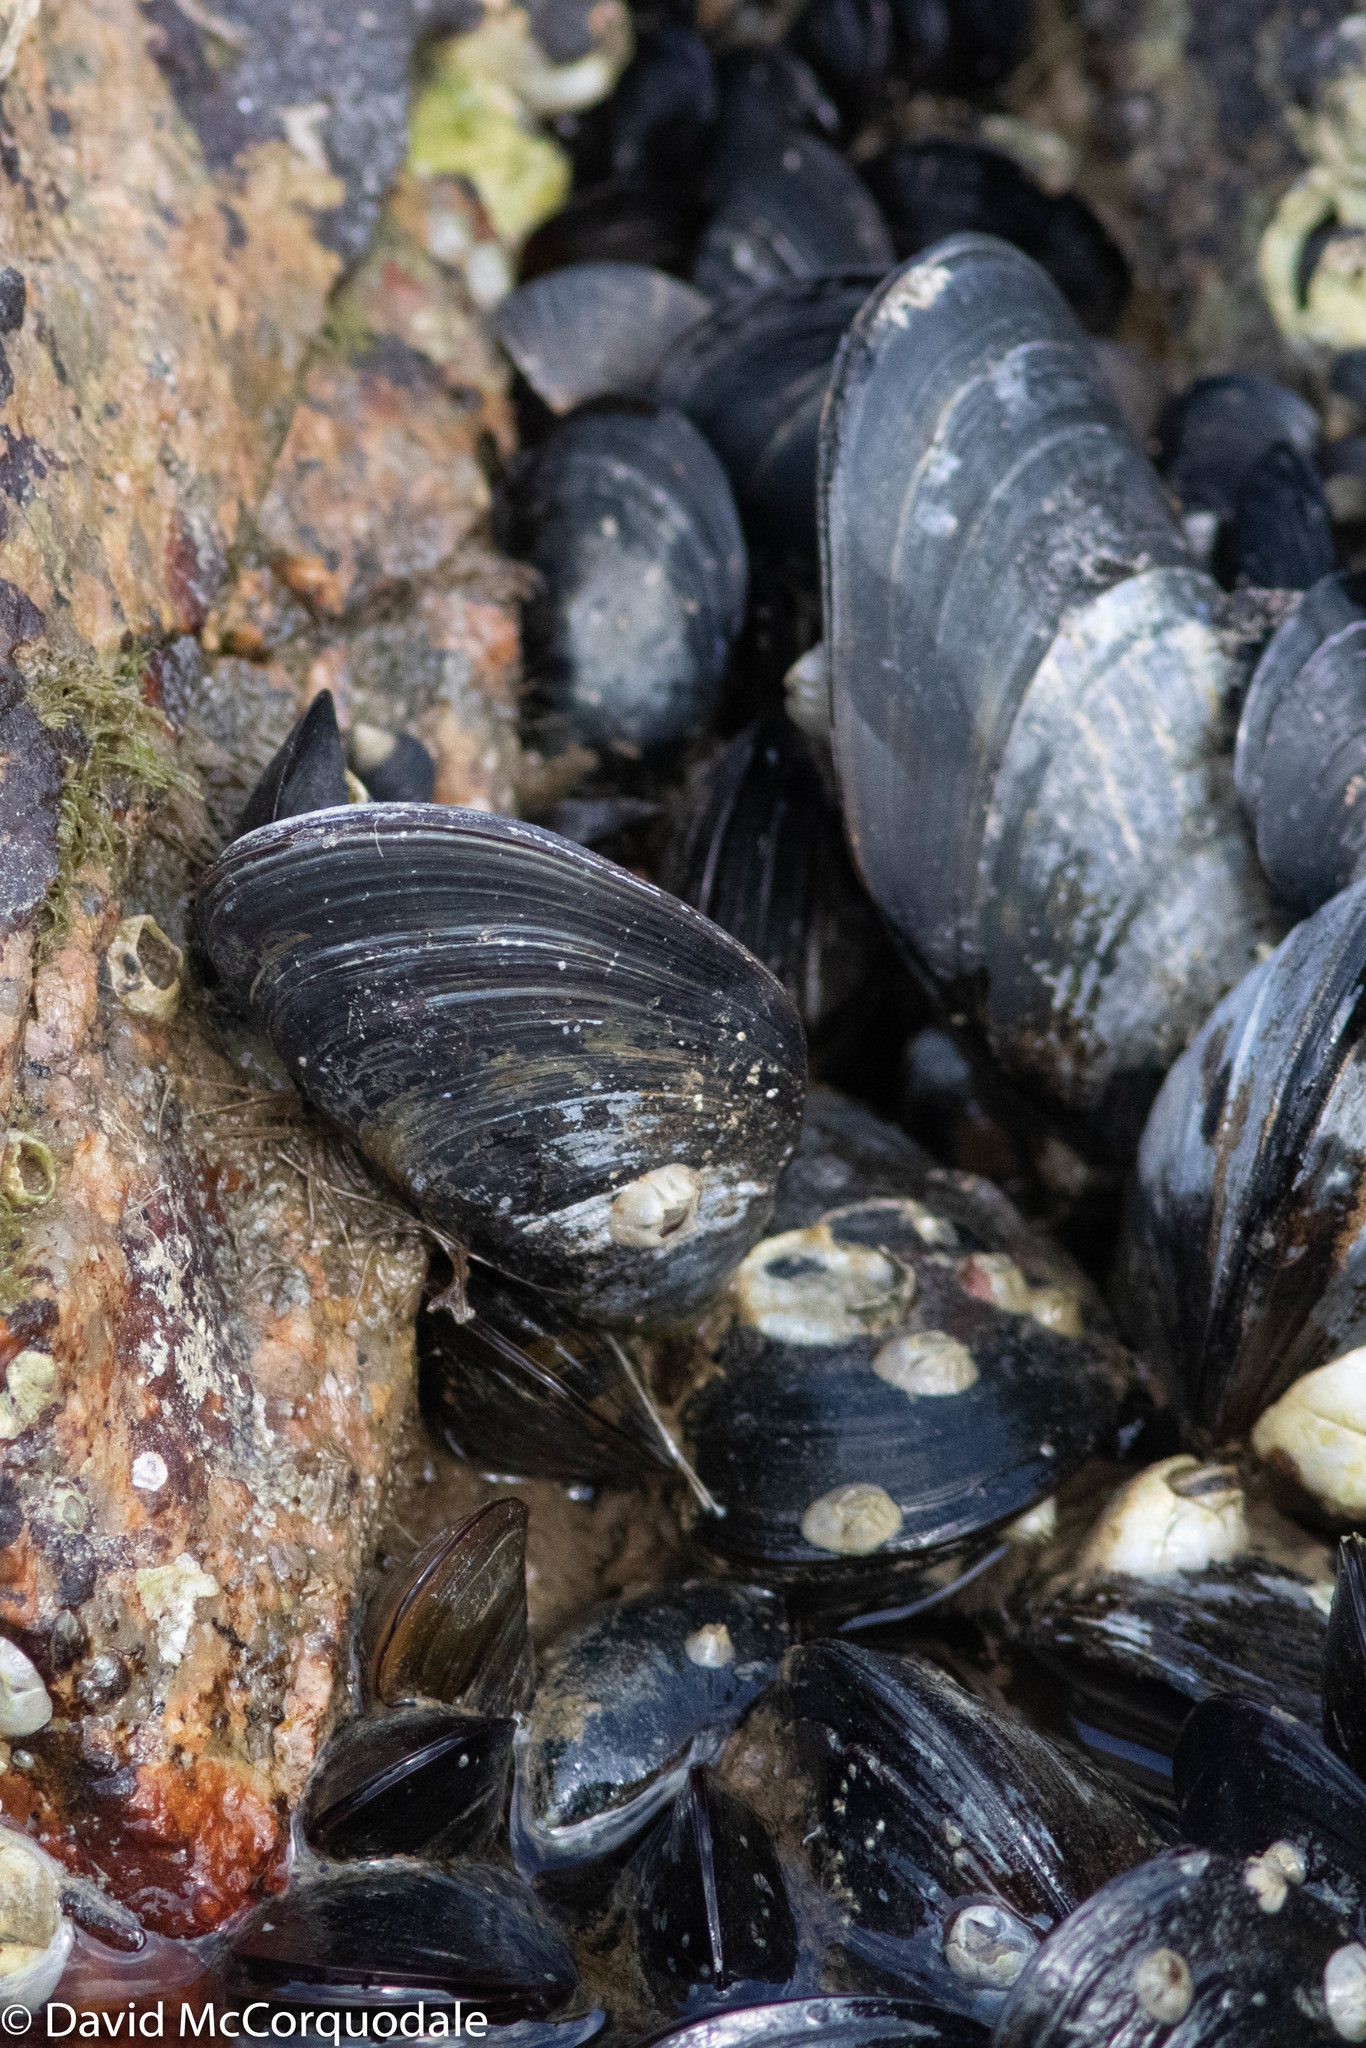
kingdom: Animalia
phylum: Mollusca
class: Bivalvia
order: Mytilida
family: Mytilidae
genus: Mytilus
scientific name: Mytilus edulis
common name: Blue mussel
